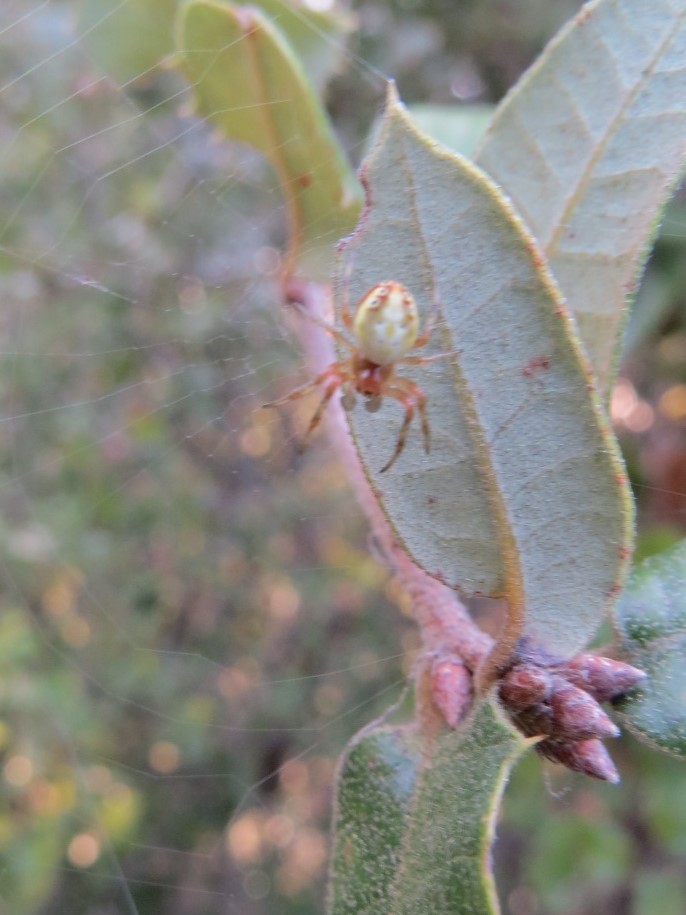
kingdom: Animalia
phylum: Arthropoda
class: Arachnida
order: Araneae
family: Araneidae
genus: Araniella
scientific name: Araniella displicata
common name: Sixspotted orb weaver
